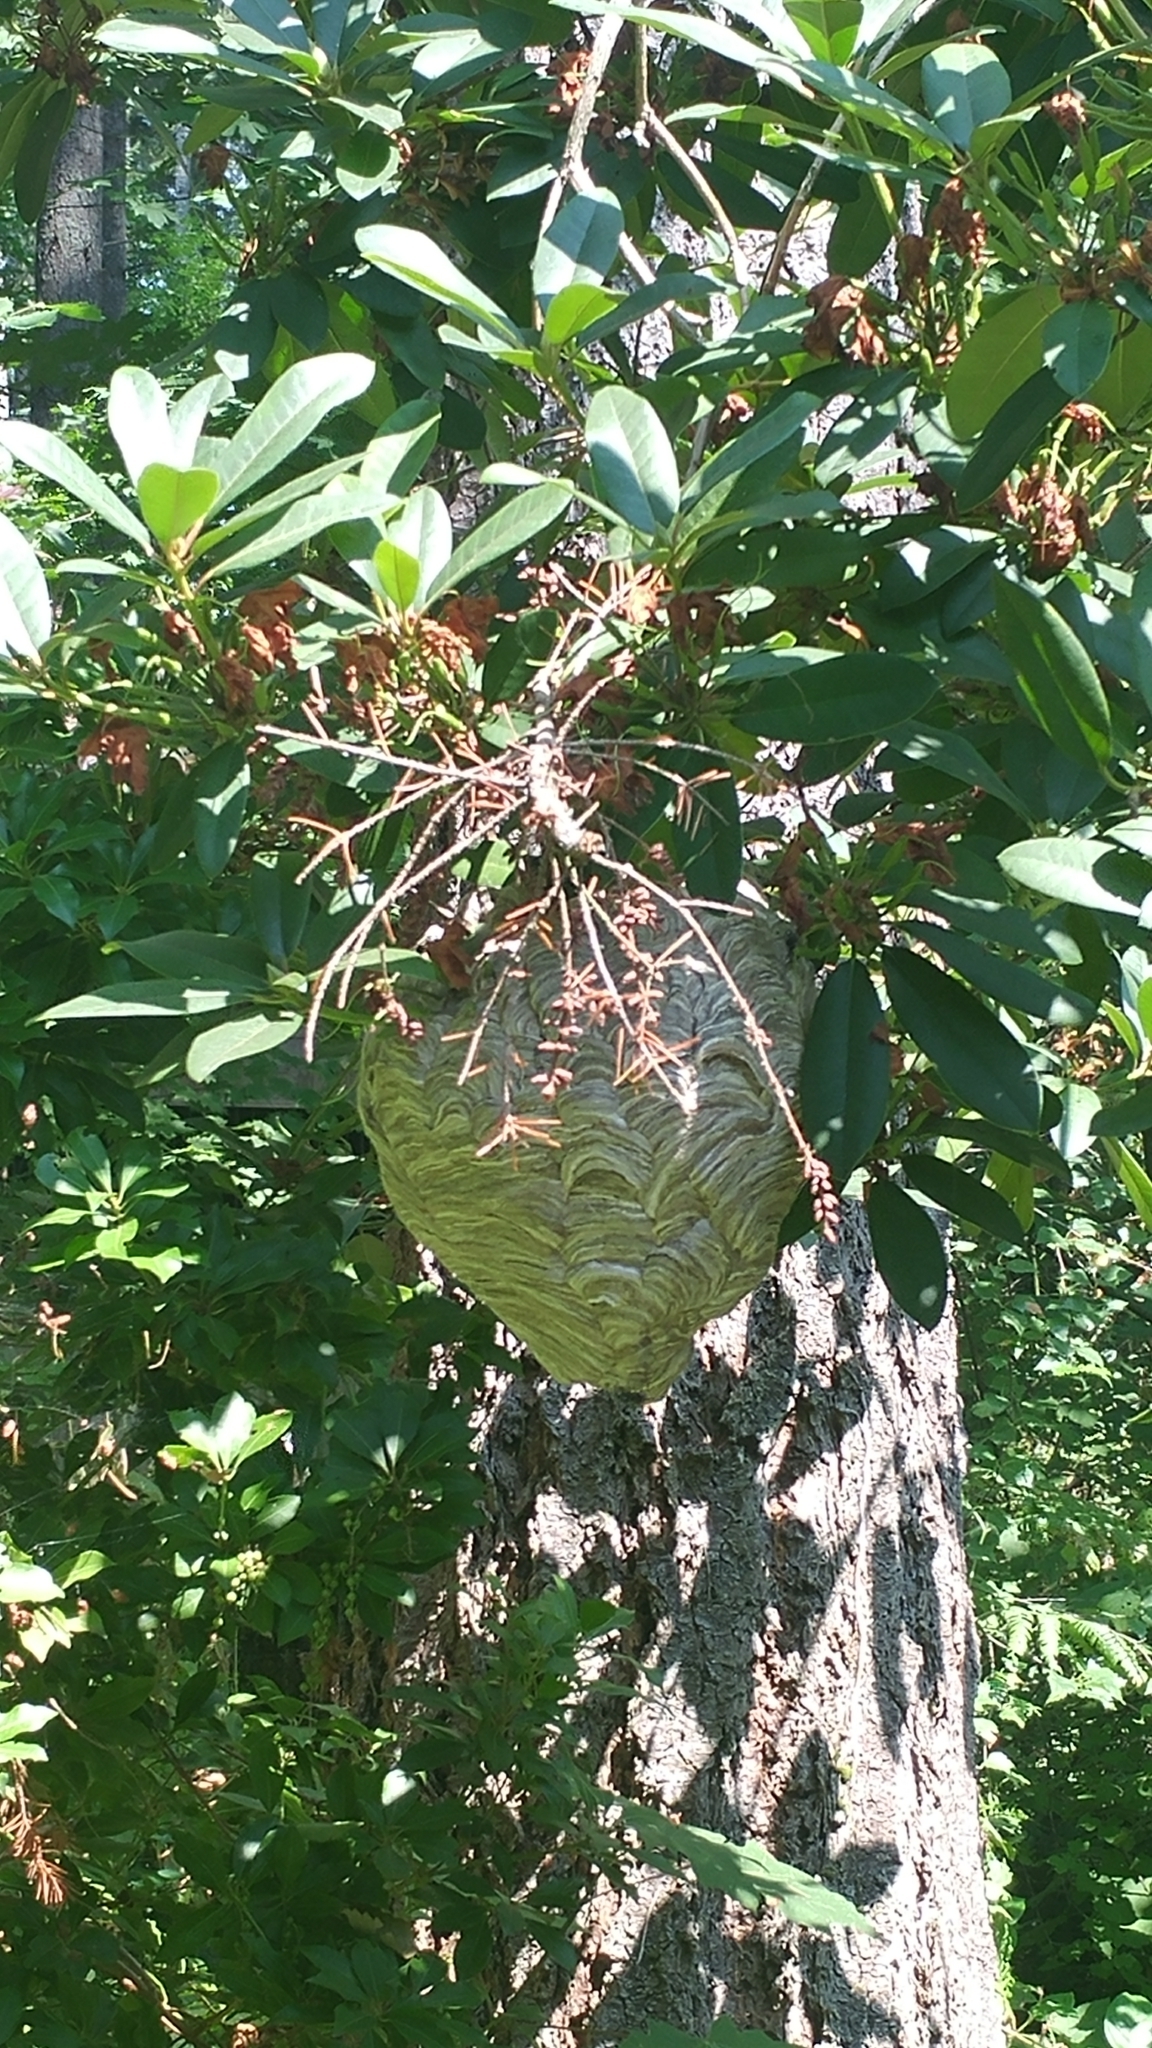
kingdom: Animalia
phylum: Arthropoda
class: Insecta
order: Hymenoptera
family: Vespidae
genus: Dolichovespula
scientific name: Dolichovespula maculata
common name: Bald-faced hornet
